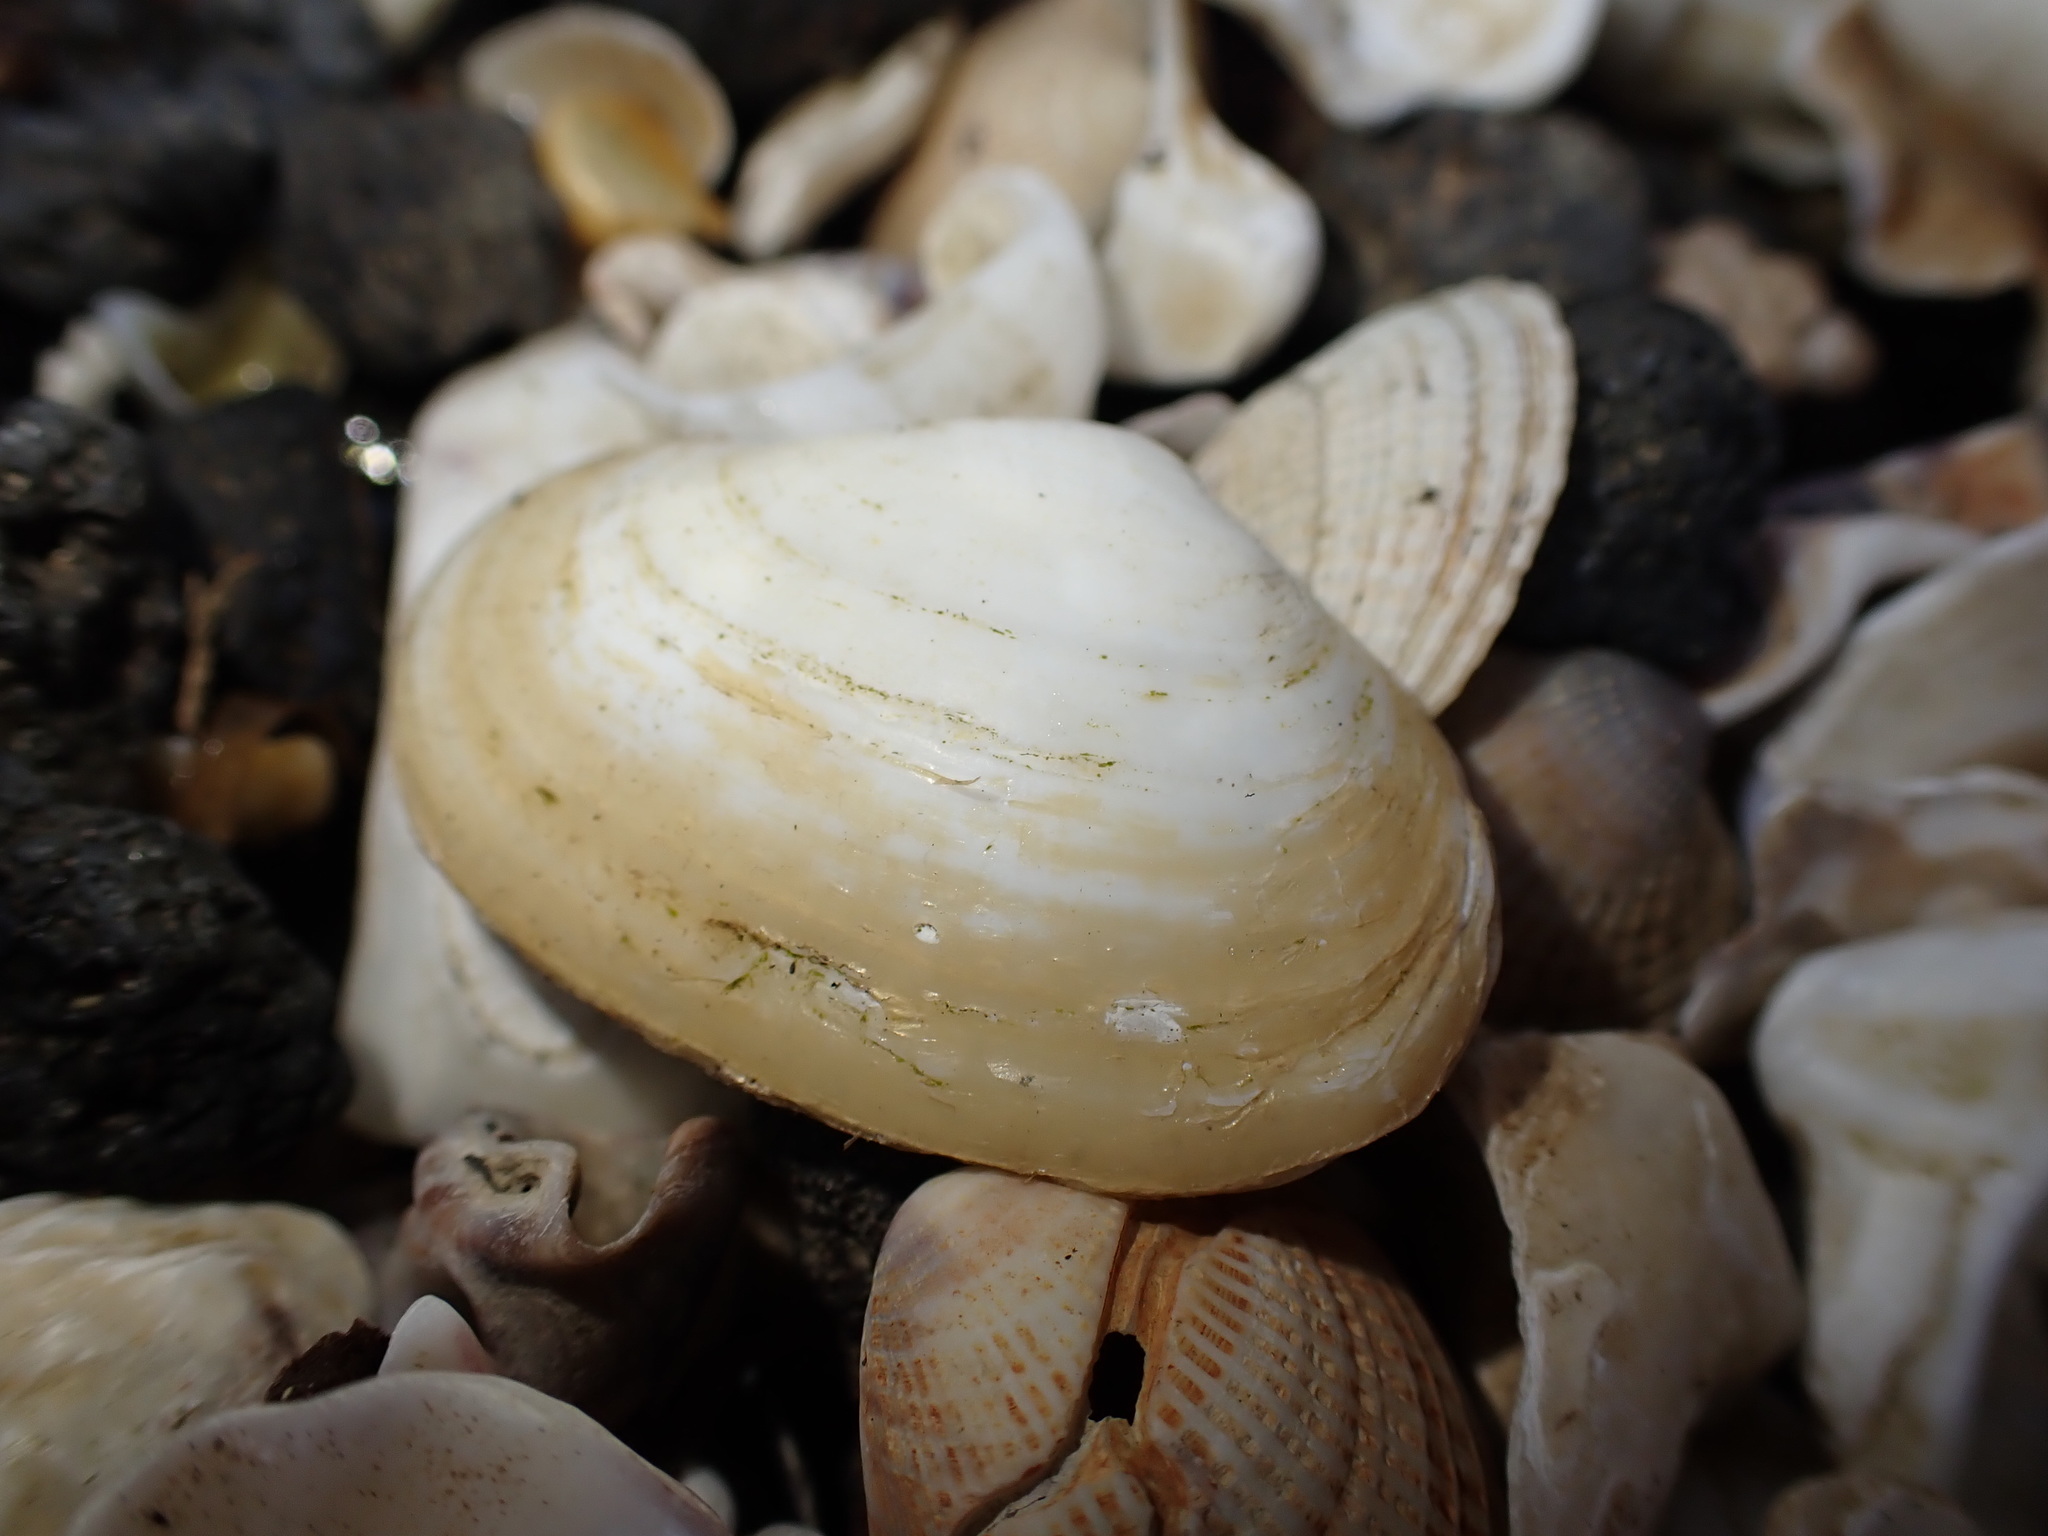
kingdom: Animalia
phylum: Mollusca
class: Bivalvia
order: Venerida
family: Mesodesmatidae
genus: Paphies
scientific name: Paphies australis
